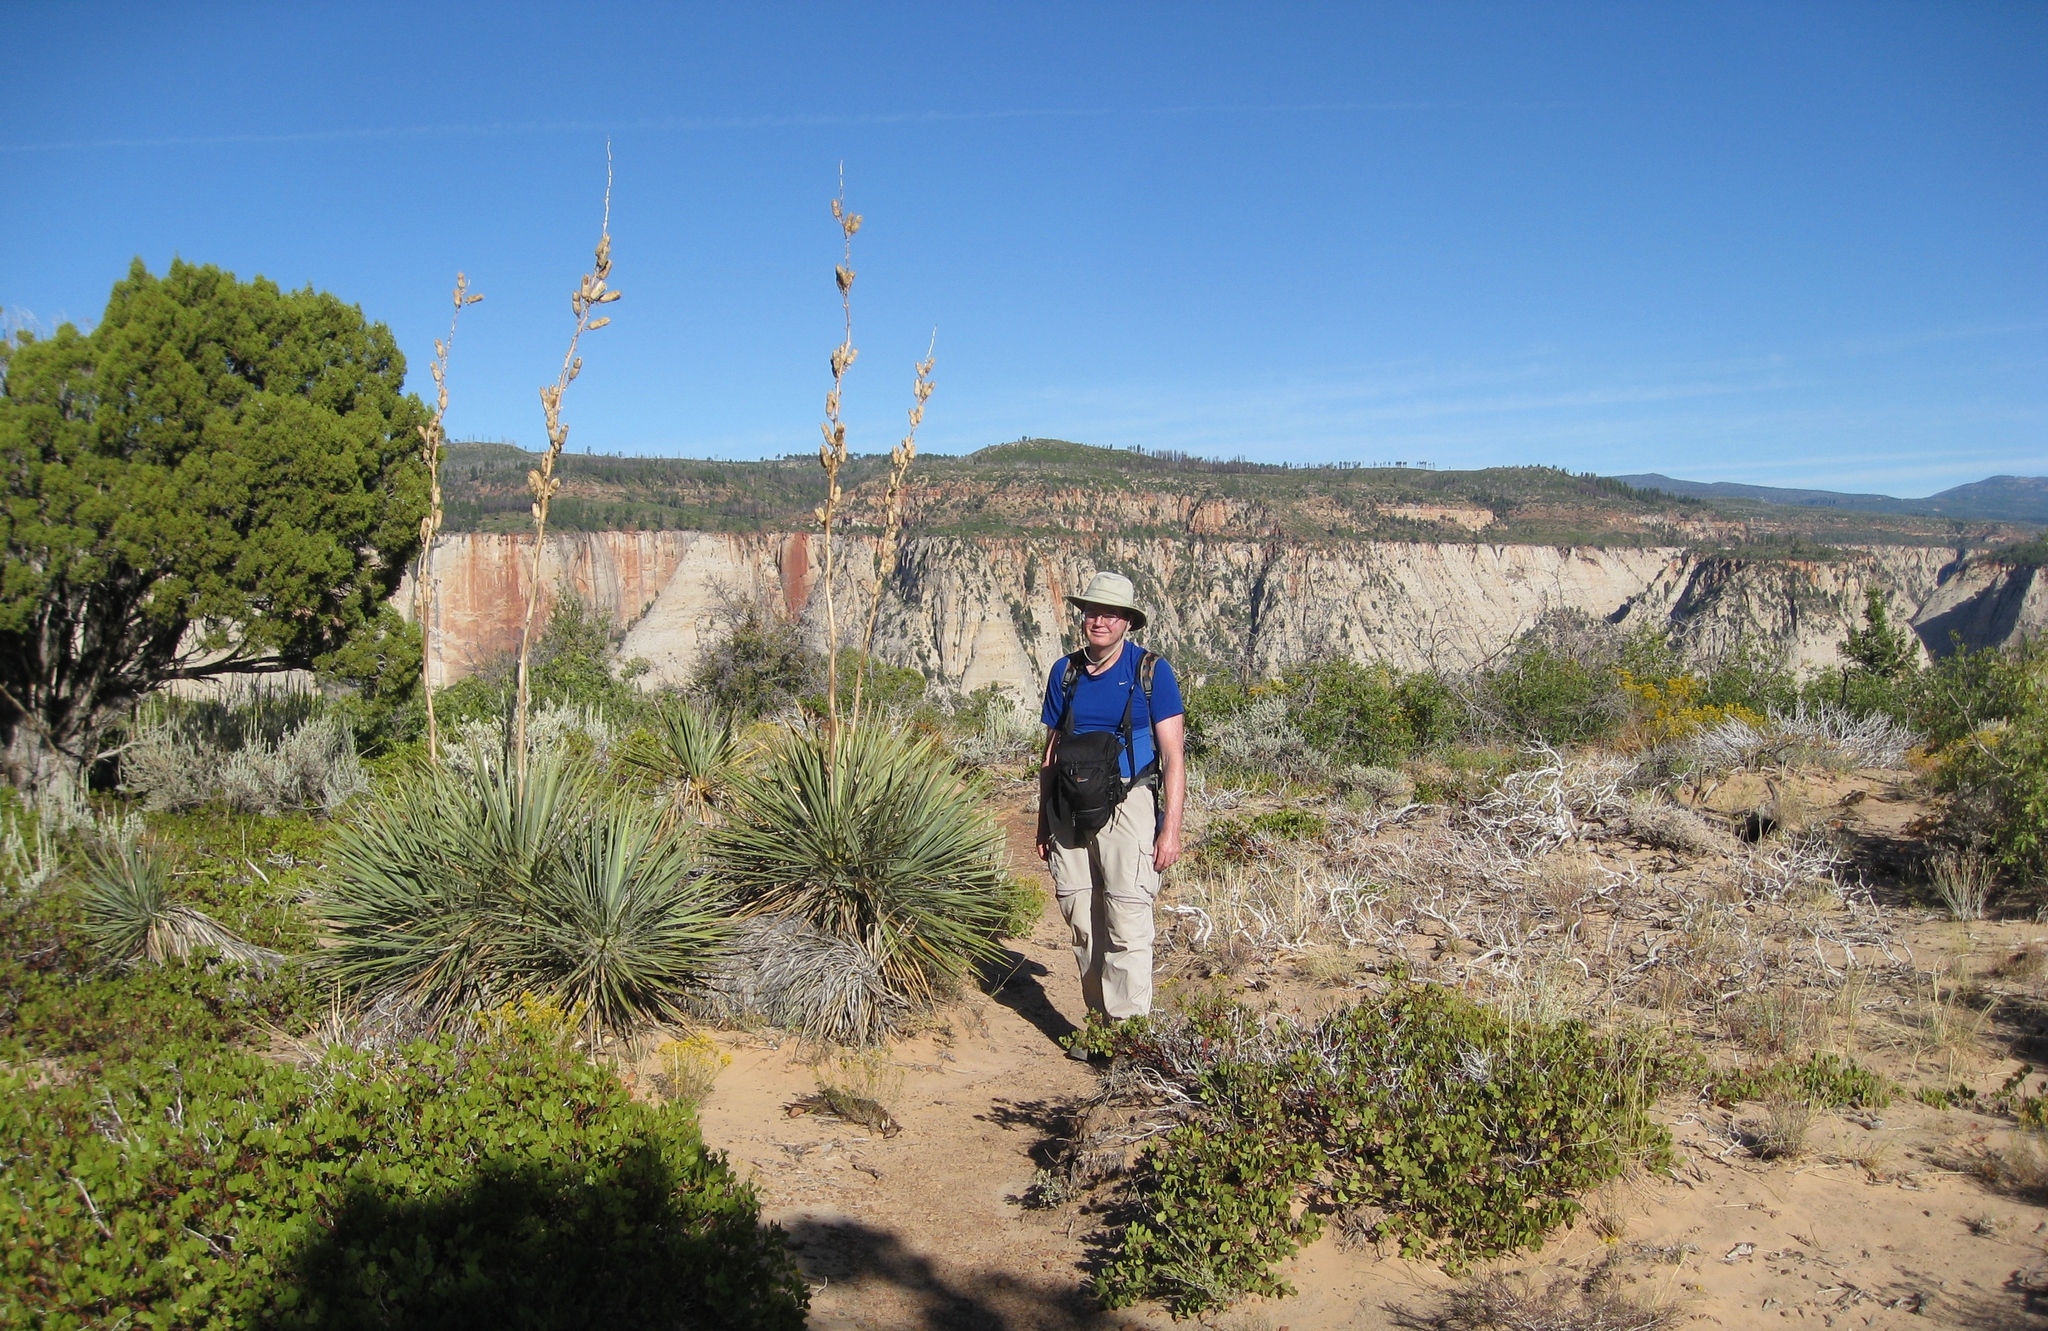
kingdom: Plantae
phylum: Tracheophyta
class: Liliopsida
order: Asparagales
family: Asparagaceae
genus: Yucca
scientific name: Yucca angustissima
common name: Narrowleaf yucca
